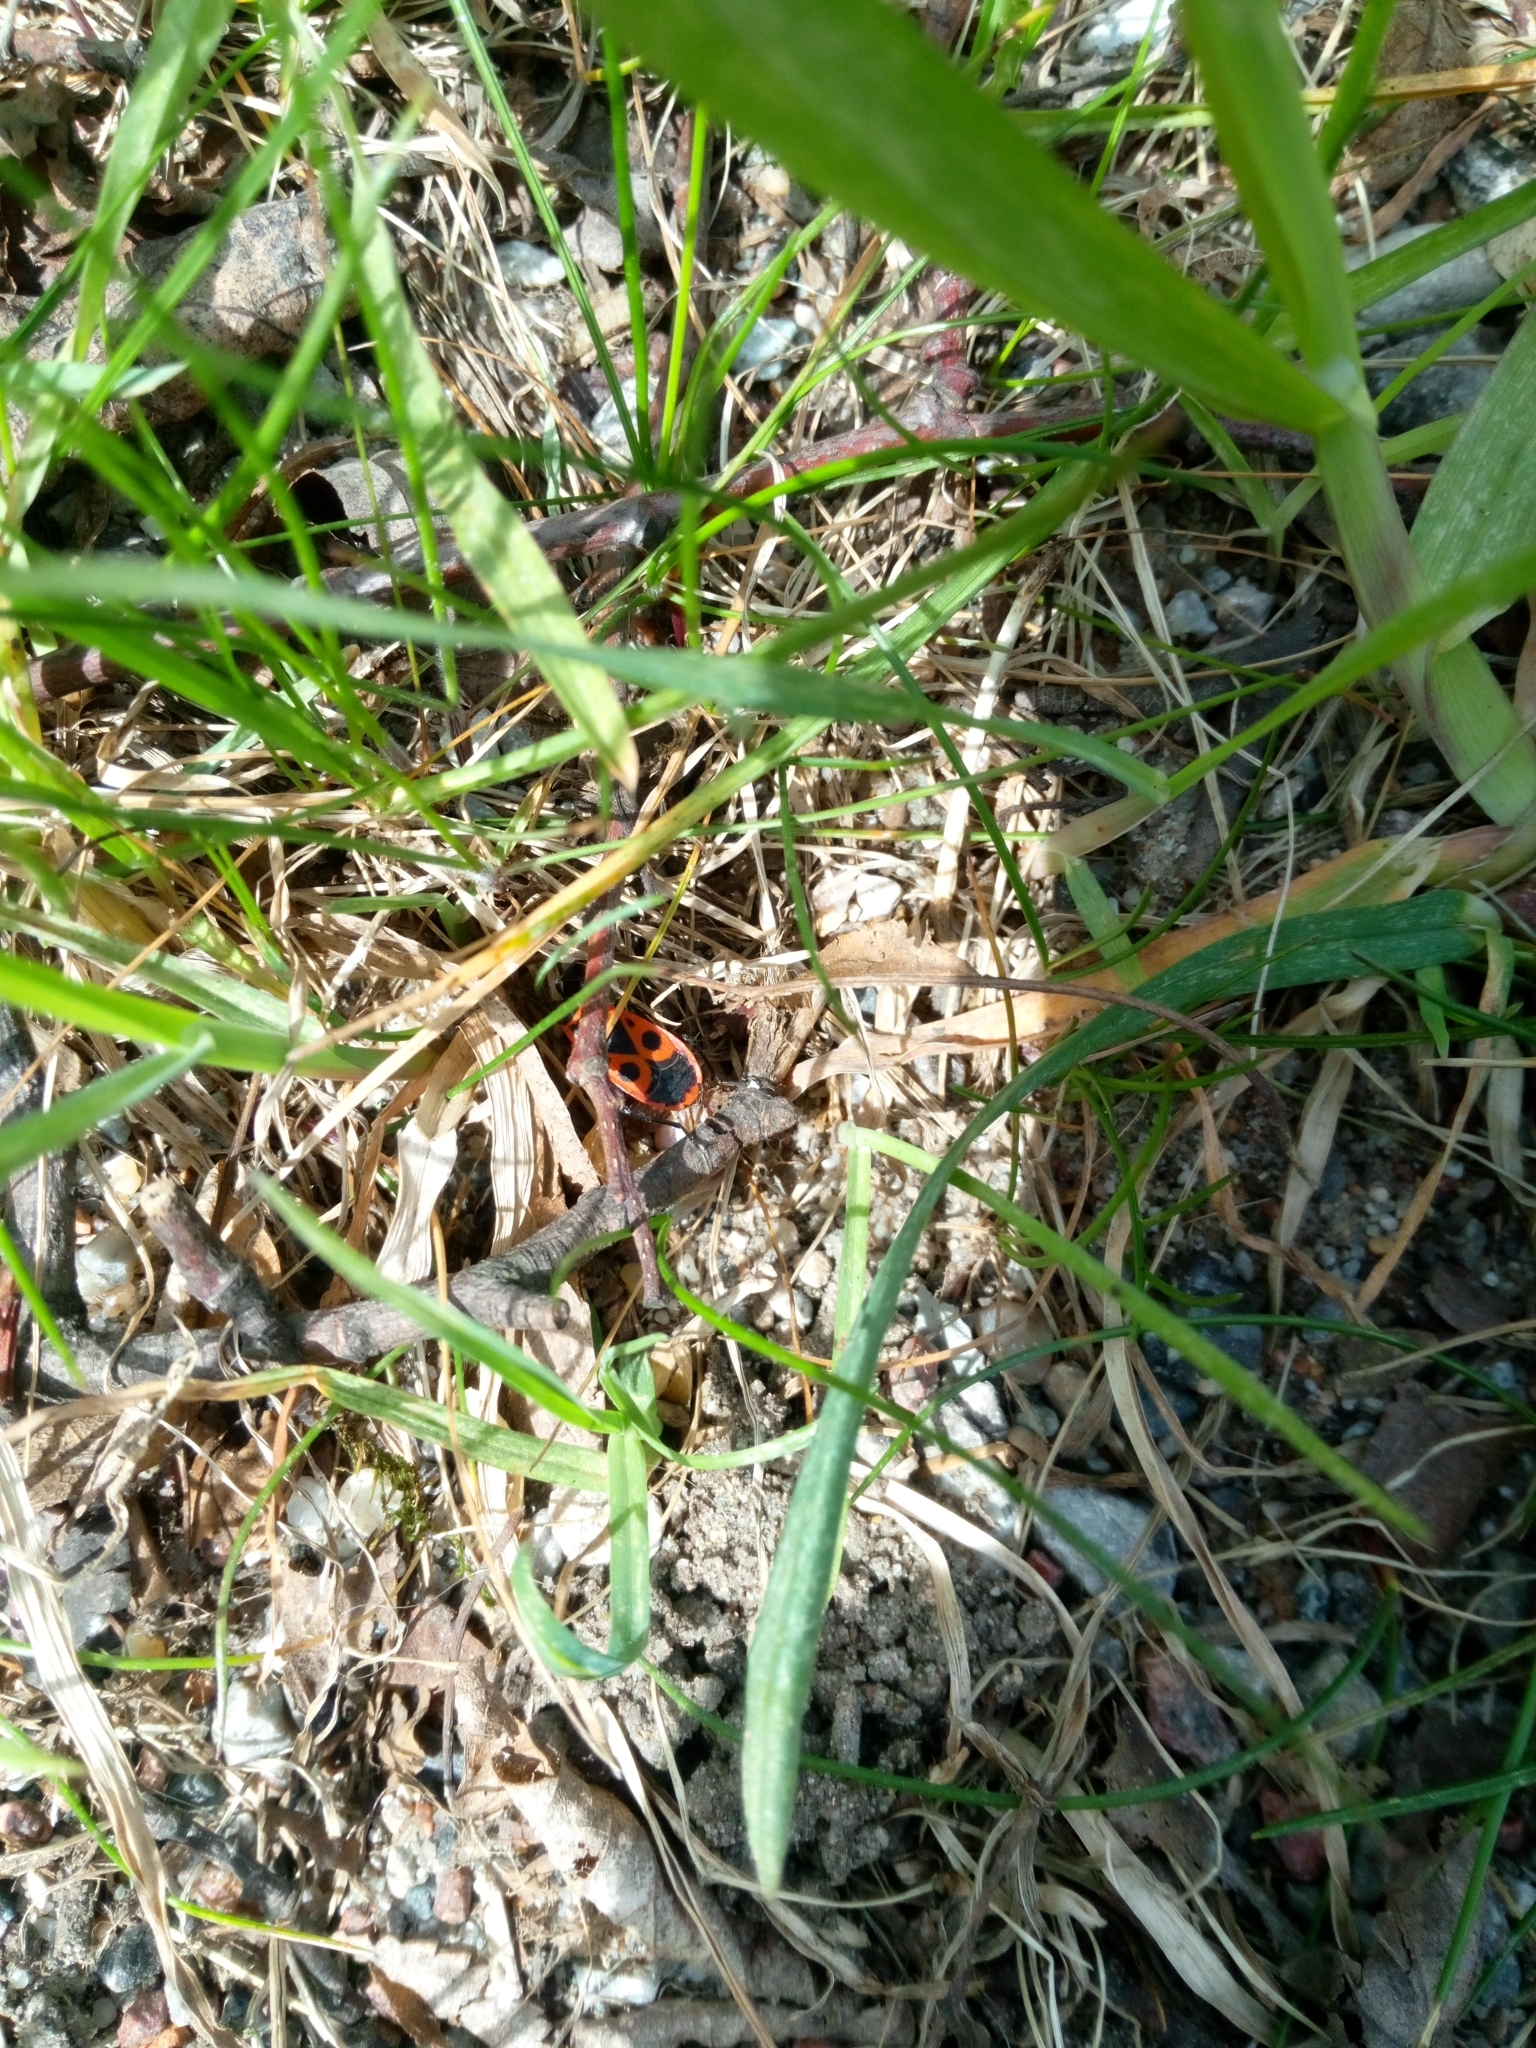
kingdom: Animalia
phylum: Arthropoda
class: Insecta
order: Hemiptera
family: Pyrrhocoridae
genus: Pyrrhocoris
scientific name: Pyrrhocoris apterus
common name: Firebug
